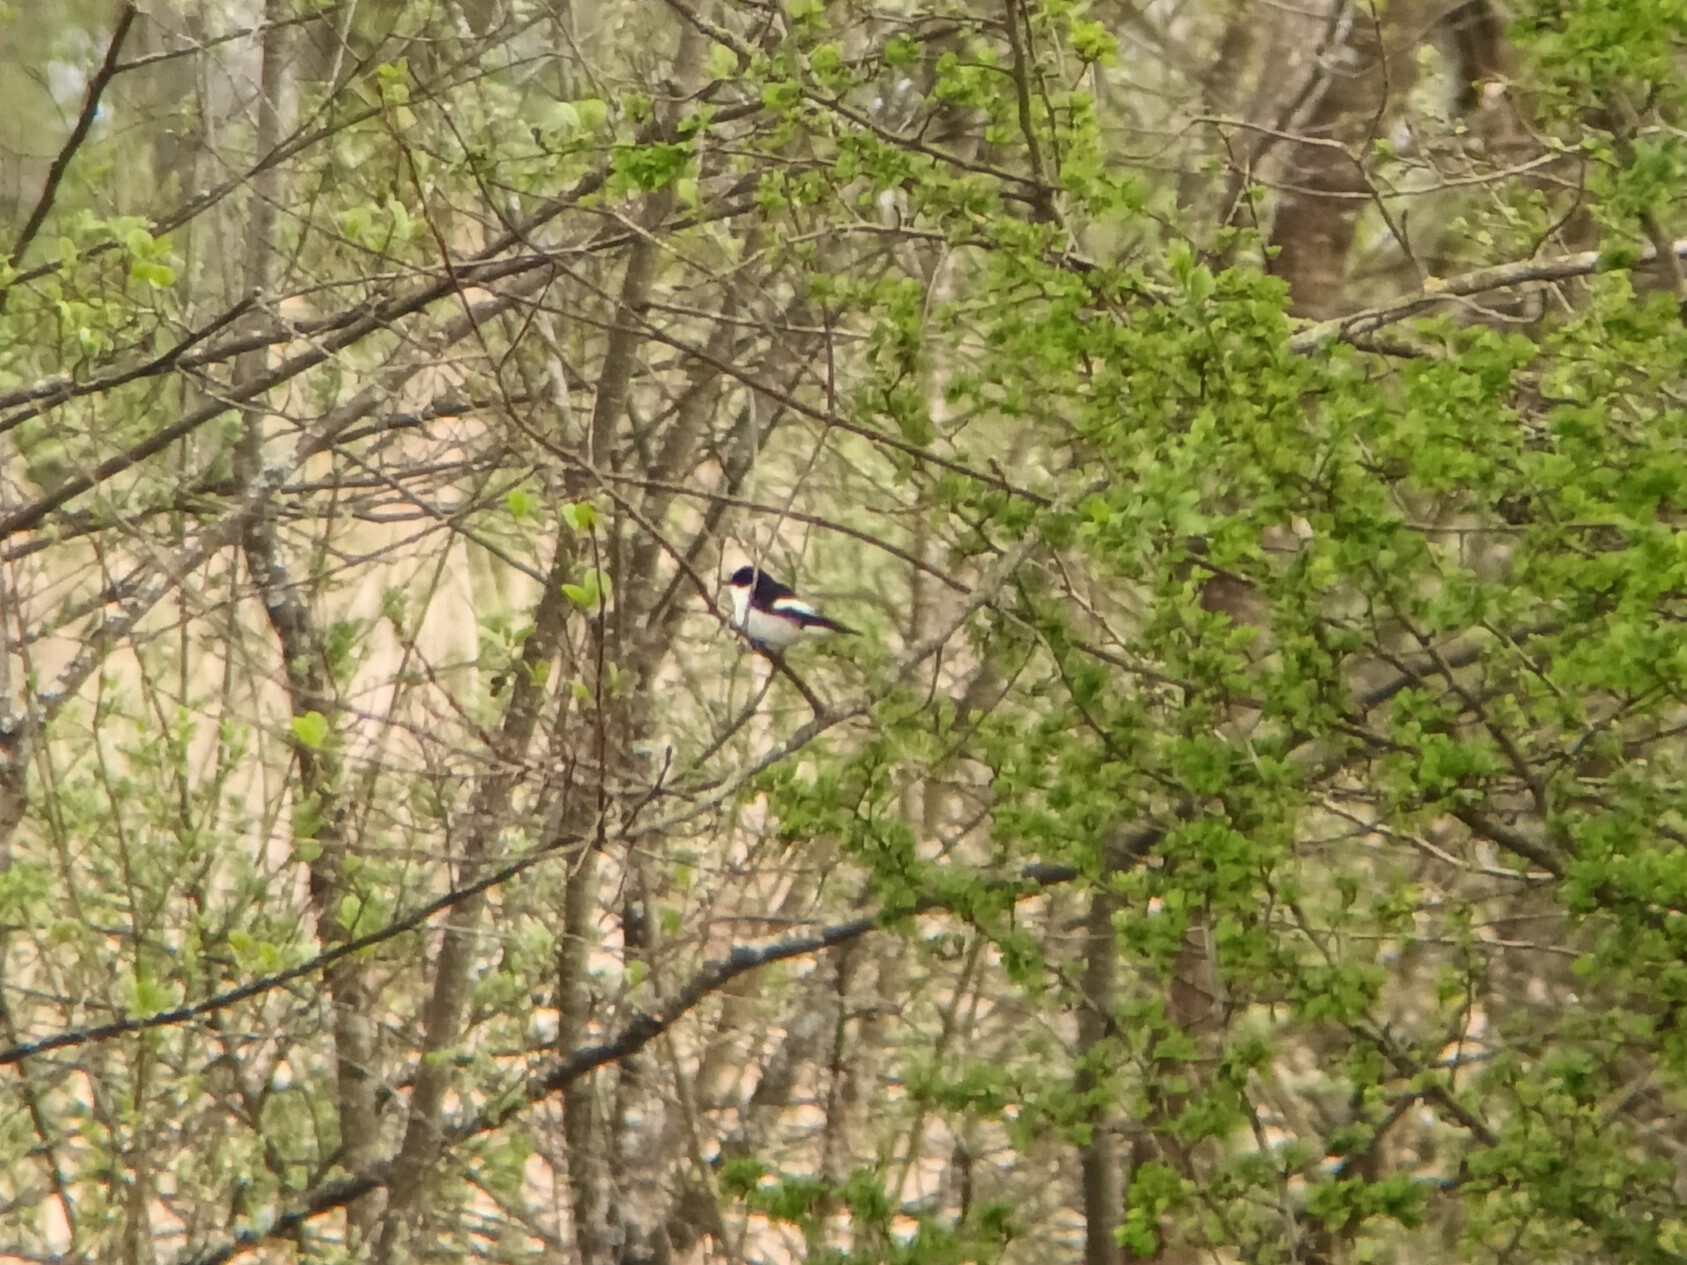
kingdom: Animalia
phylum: Chordata
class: Aves
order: Passeriformes
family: Muscicapidae
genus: Ficedula
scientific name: Ficedula hypoleuca
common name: European pied flycatcher
